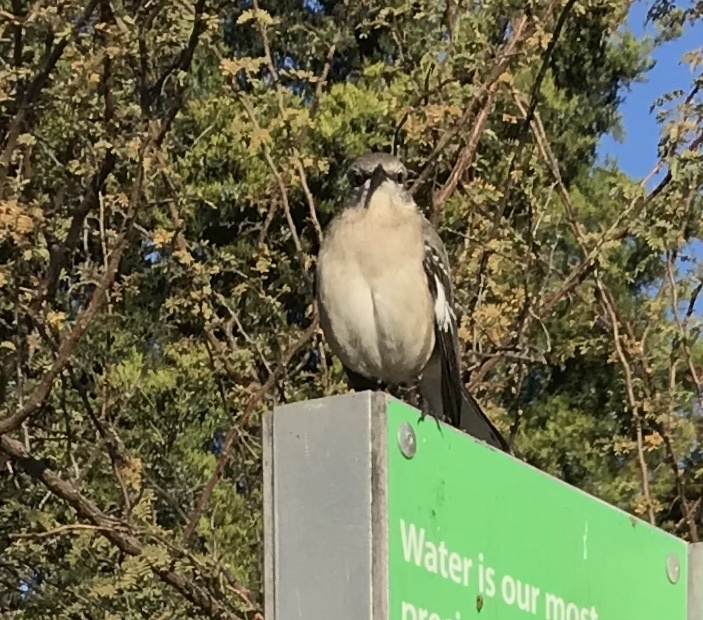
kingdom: Animalia
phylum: Chordata
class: Aves
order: Passeriformes
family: Mimidae
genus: Mimus
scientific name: Mimus polyglottos
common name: Northern mockingbird
